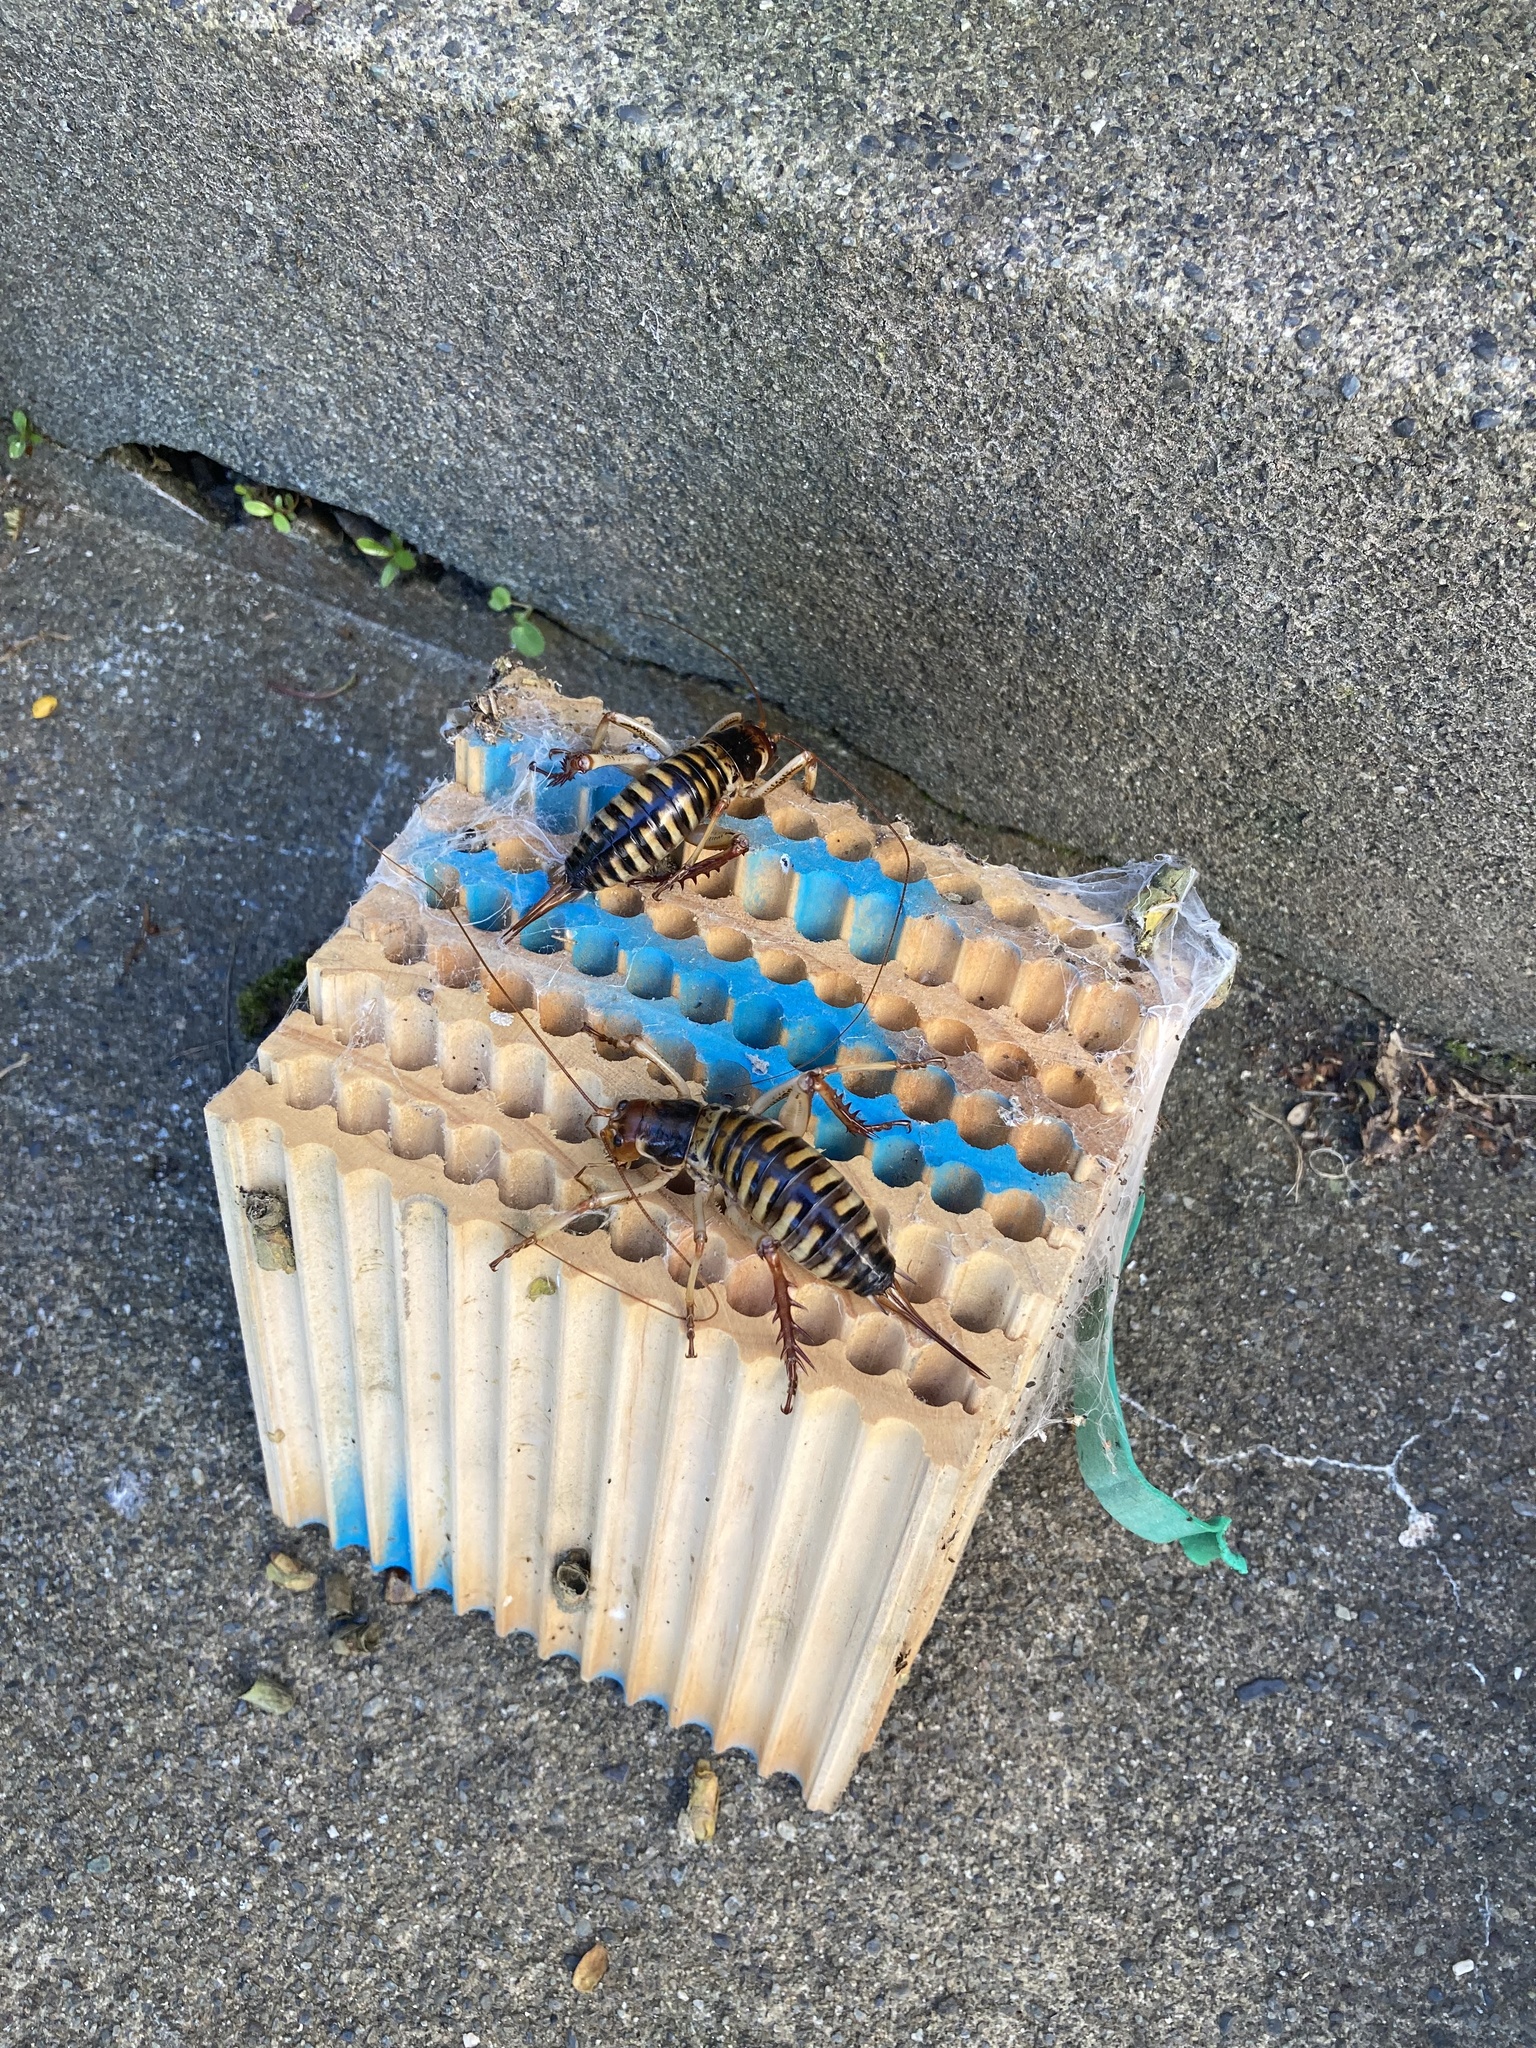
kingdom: Animalia
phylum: Arthropoda
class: Insecta
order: Orthoptera
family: Anostostomatidae
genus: Hemideina
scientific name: Hemideina crassidens
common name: Wellington tree weta
